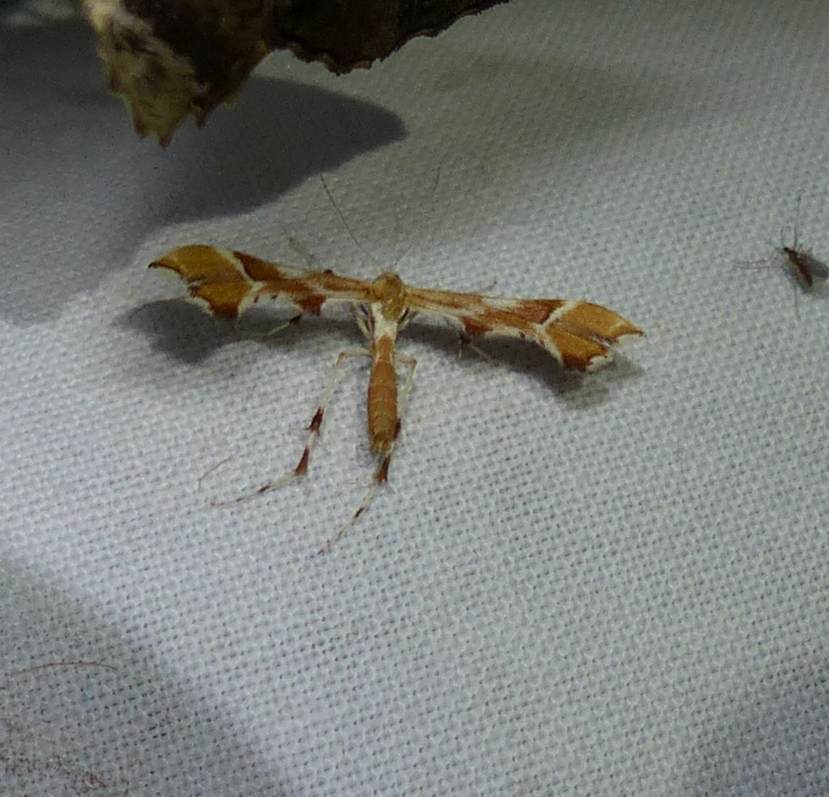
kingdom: Animalia
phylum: Arthropoda
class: Insecta
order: Lepidoptera
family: Pterophoridae
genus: Cnaemidophorus
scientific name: Cnaemidophorus rhododactyla
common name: Rose plume
